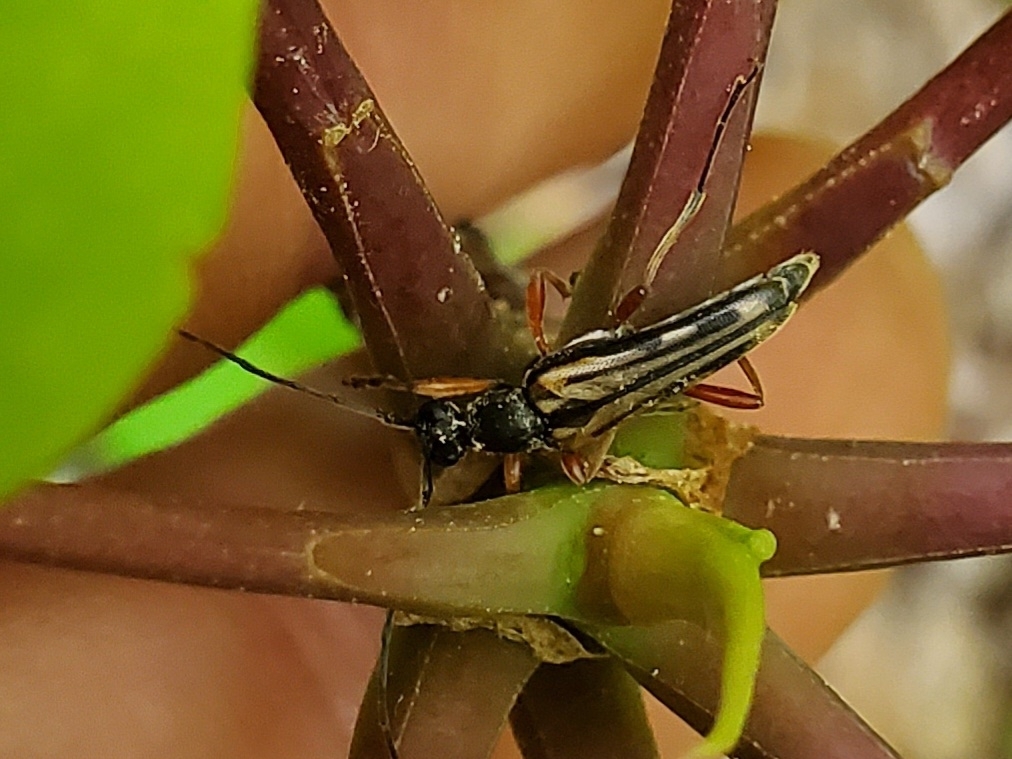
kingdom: Animalia
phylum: Arthropoda
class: Insecta
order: Coleoptera
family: Cerambycidae
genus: Analeptura
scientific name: Analeptura lineola
